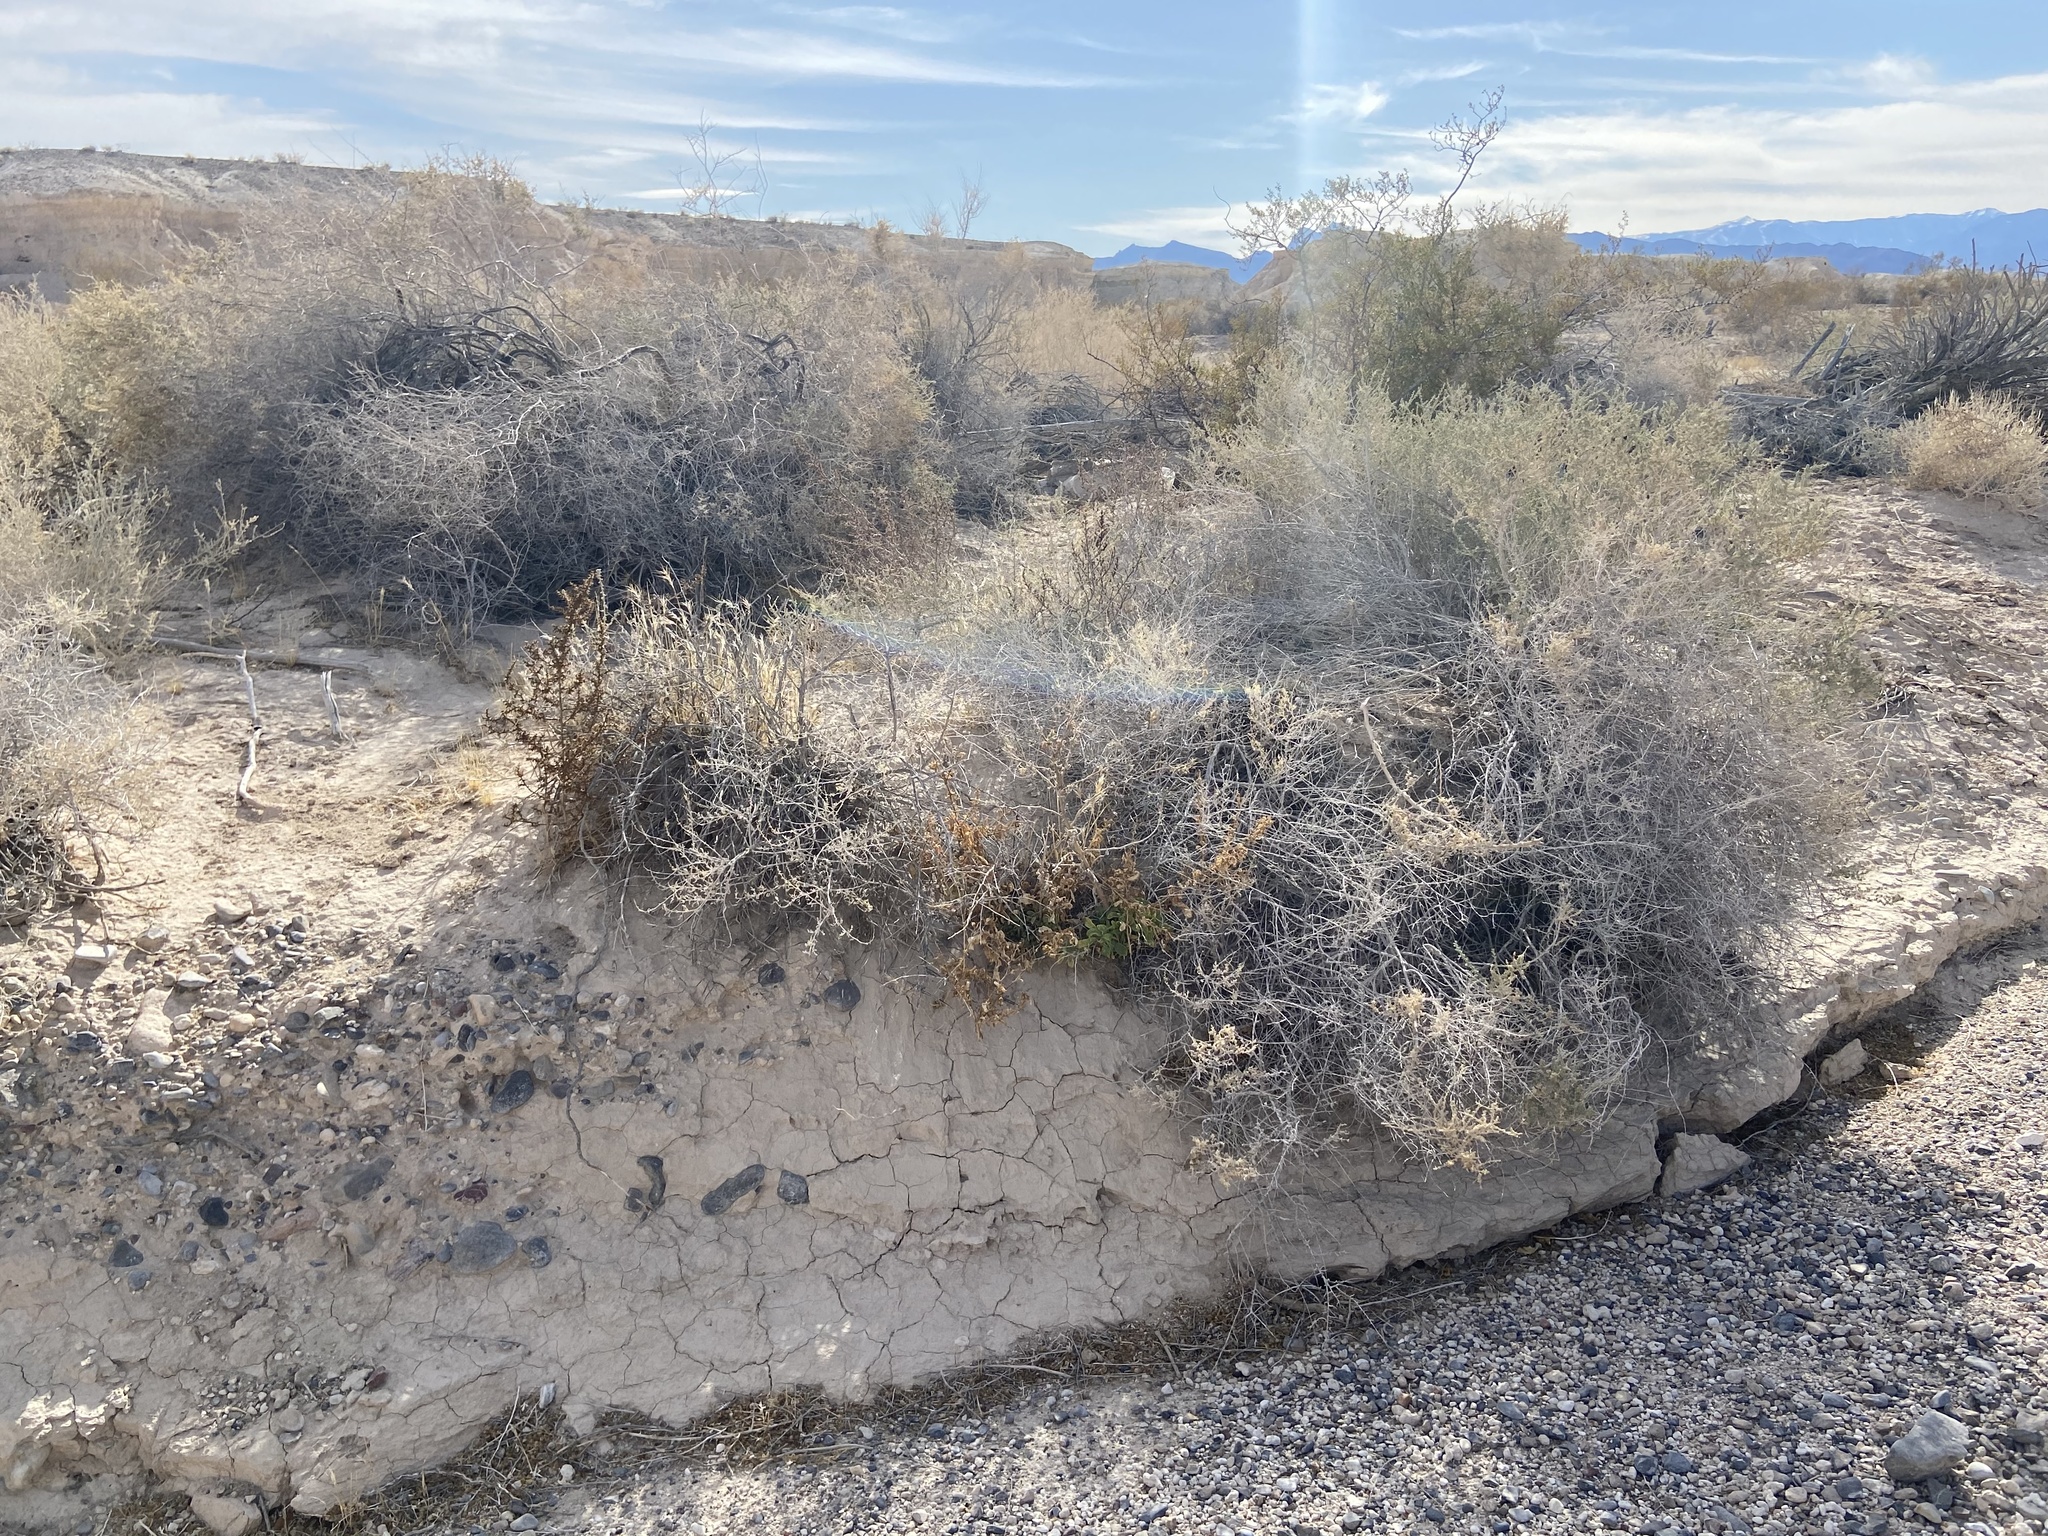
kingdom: Plantae
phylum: Tracheophyta
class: Magnoliopsida
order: Solanales
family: Solanaceae
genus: Nicotiana
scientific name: Nicotiana obtusifolia
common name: Desert tobacco
